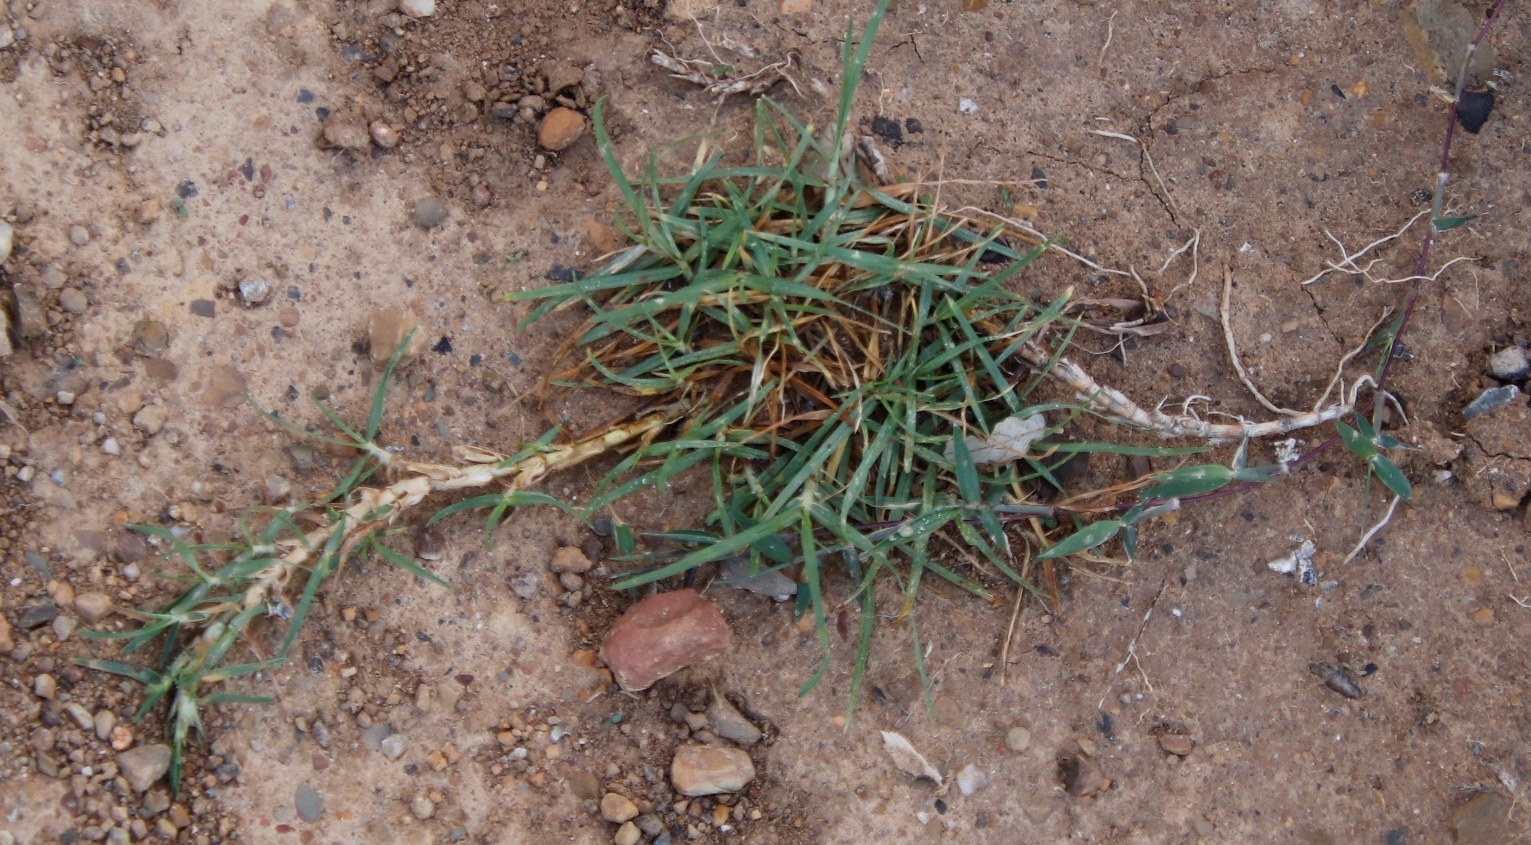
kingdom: Plantae
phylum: Tracheophyta
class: Liliopsida
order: Poales
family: Poaceae
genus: Cenchrus
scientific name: Cenchrus clandestinus
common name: Kikuyugrass
